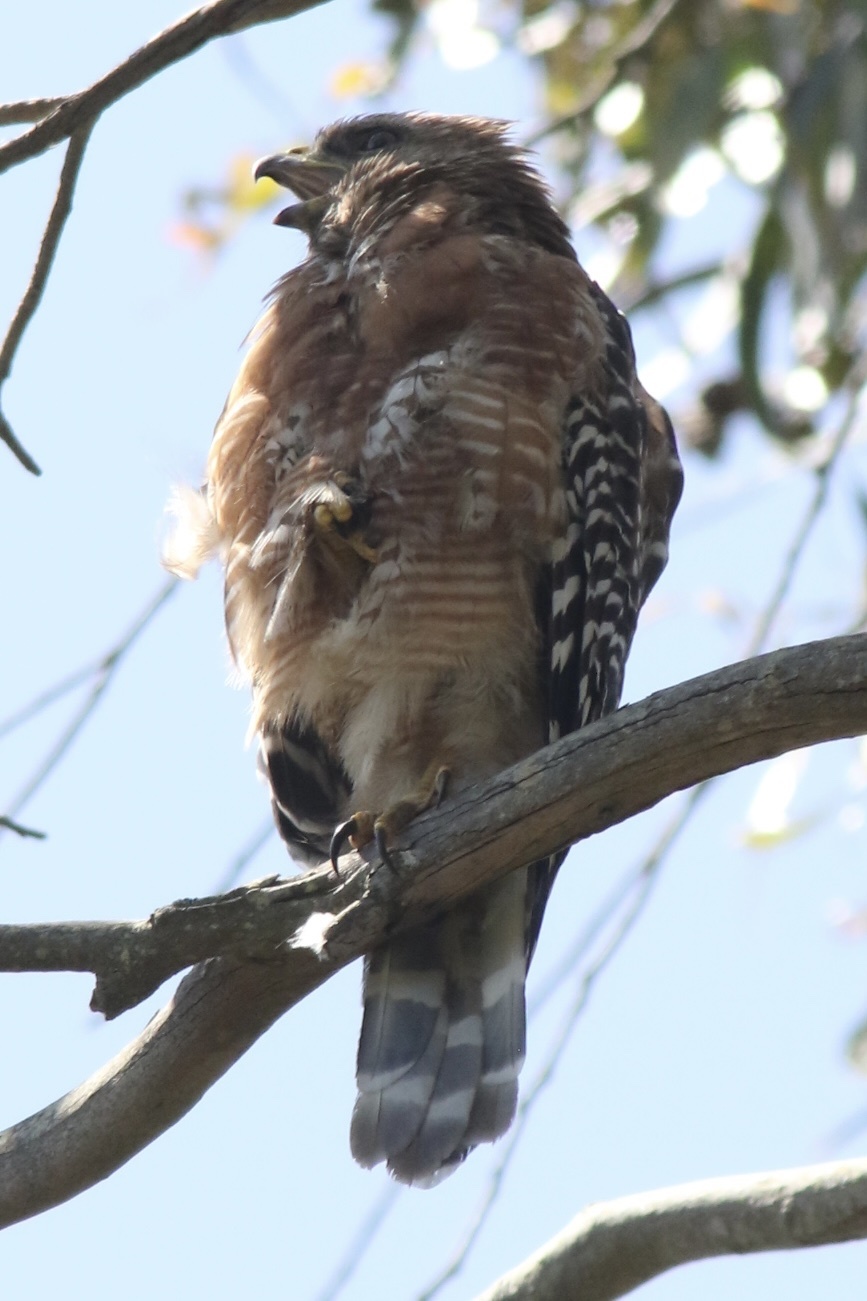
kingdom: Animalia
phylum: Chordata
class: Aves
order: Accipitriformes
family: Accipitridae
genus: Buteo
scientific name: Buteo lineatus
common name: Red-shouldered hawk
